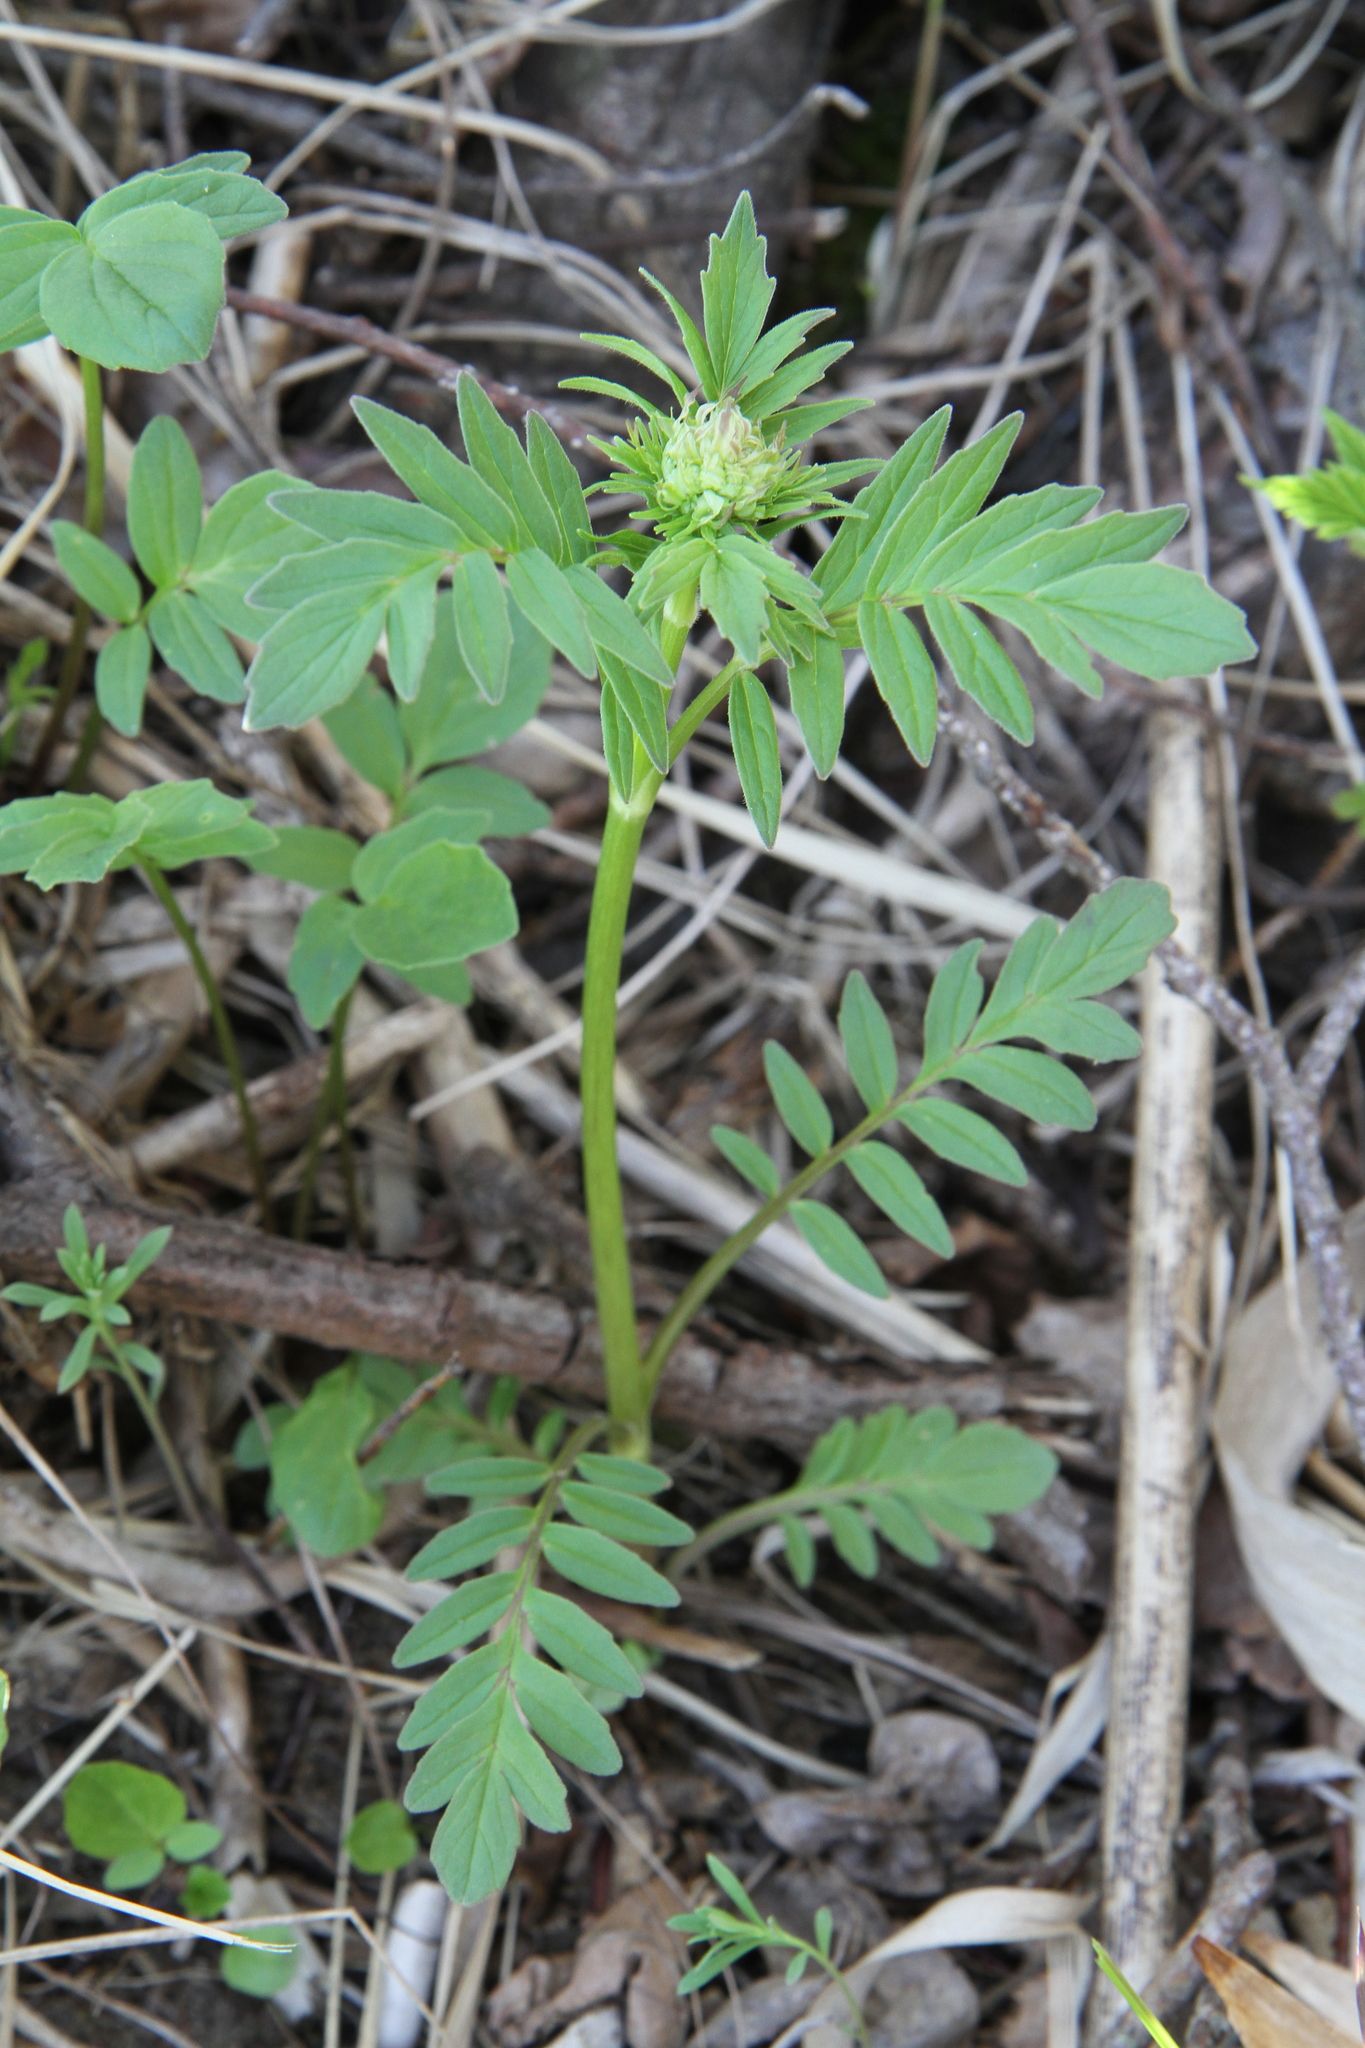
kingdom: Plantae
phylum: Tracheophyta
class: Magnoliopsida
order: Dipsacales
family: Caprifoliaceae
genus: Valeriana
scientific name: Valeriana officinalis
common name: Common valerian
